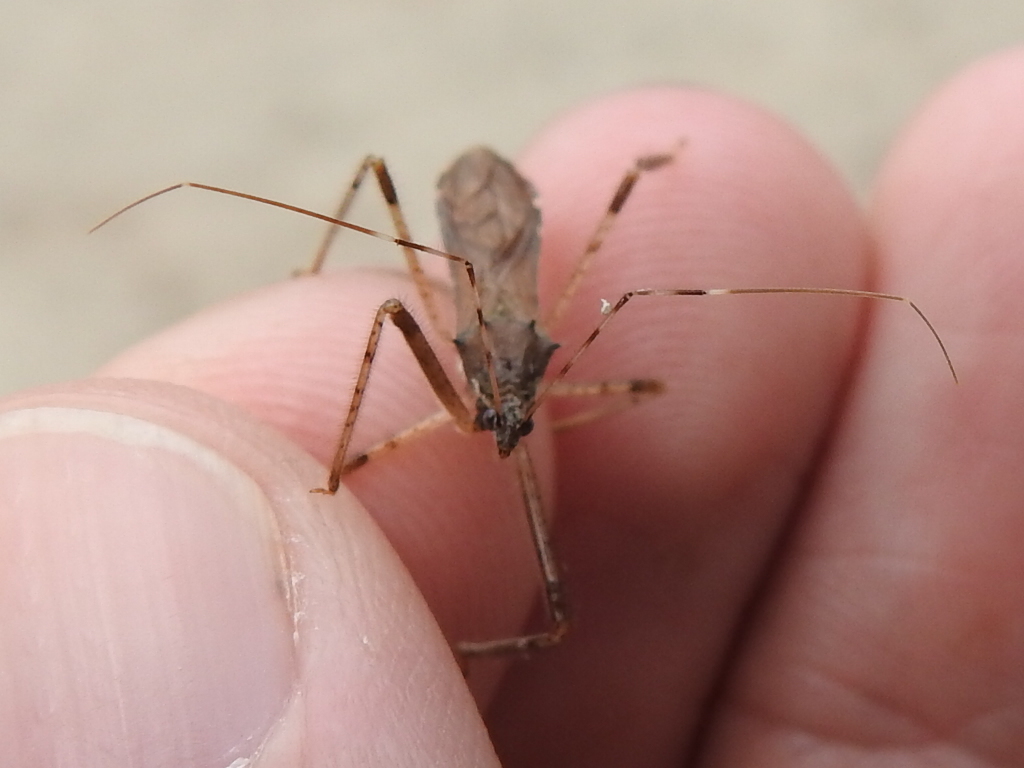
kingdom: Animalia
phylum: Arthropoda
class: Insecta
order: Hemiptera
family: Reduviidae
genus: Rocconota
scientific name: Rocconota annulicornis
